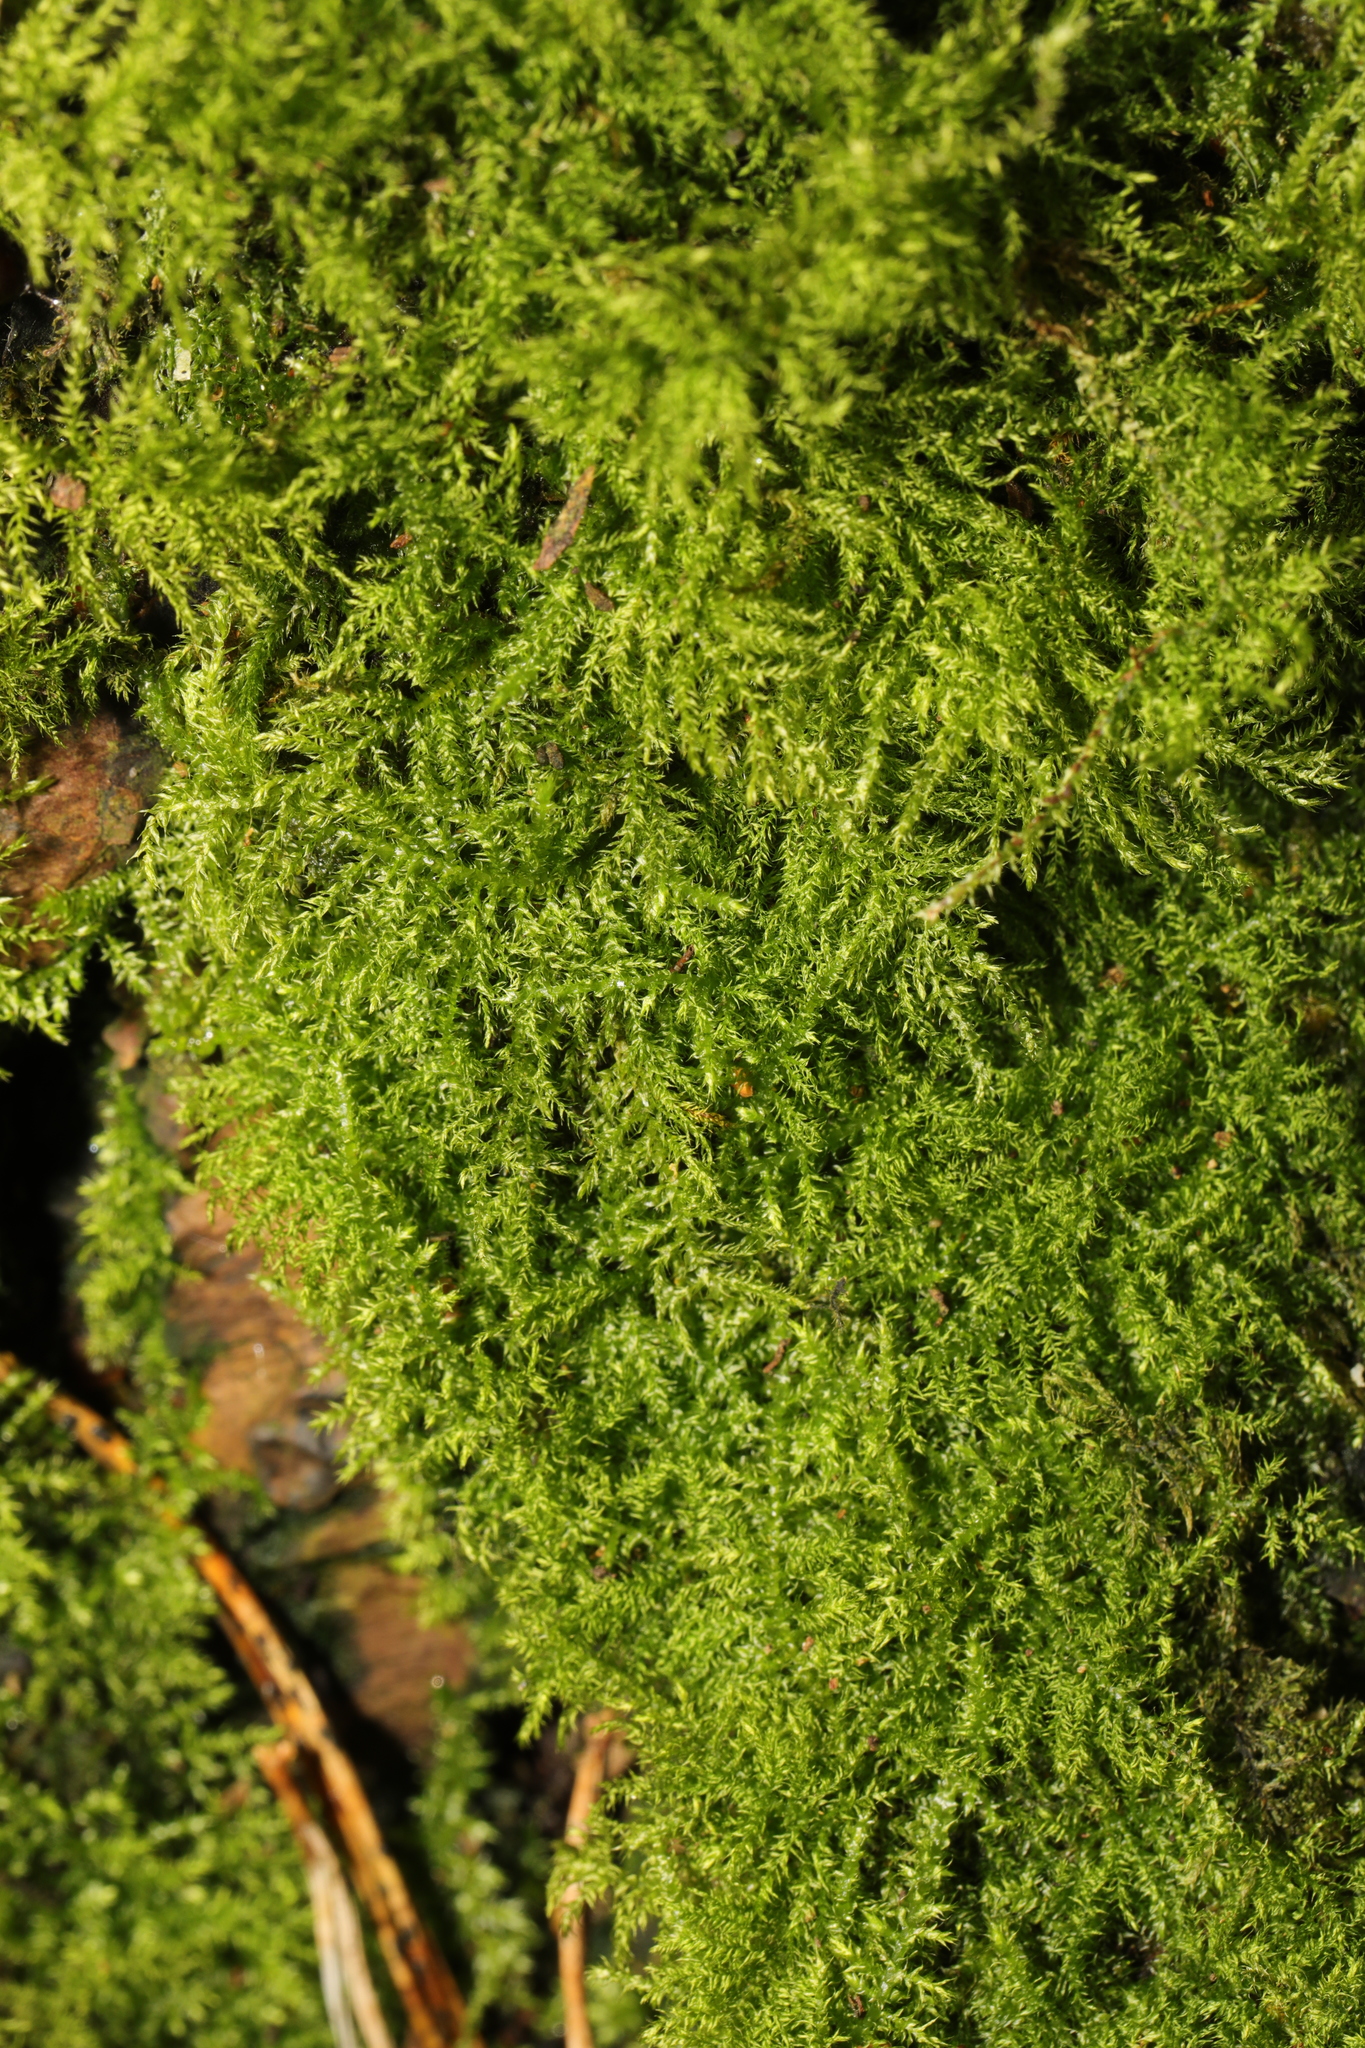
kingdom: Plantae
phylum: Bryophyta
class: Bryopsida
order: Hypnales
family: Brachytheciaceae
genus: Kindbergia
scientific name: Kindbergia praelonga
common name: Slender beaked moss
